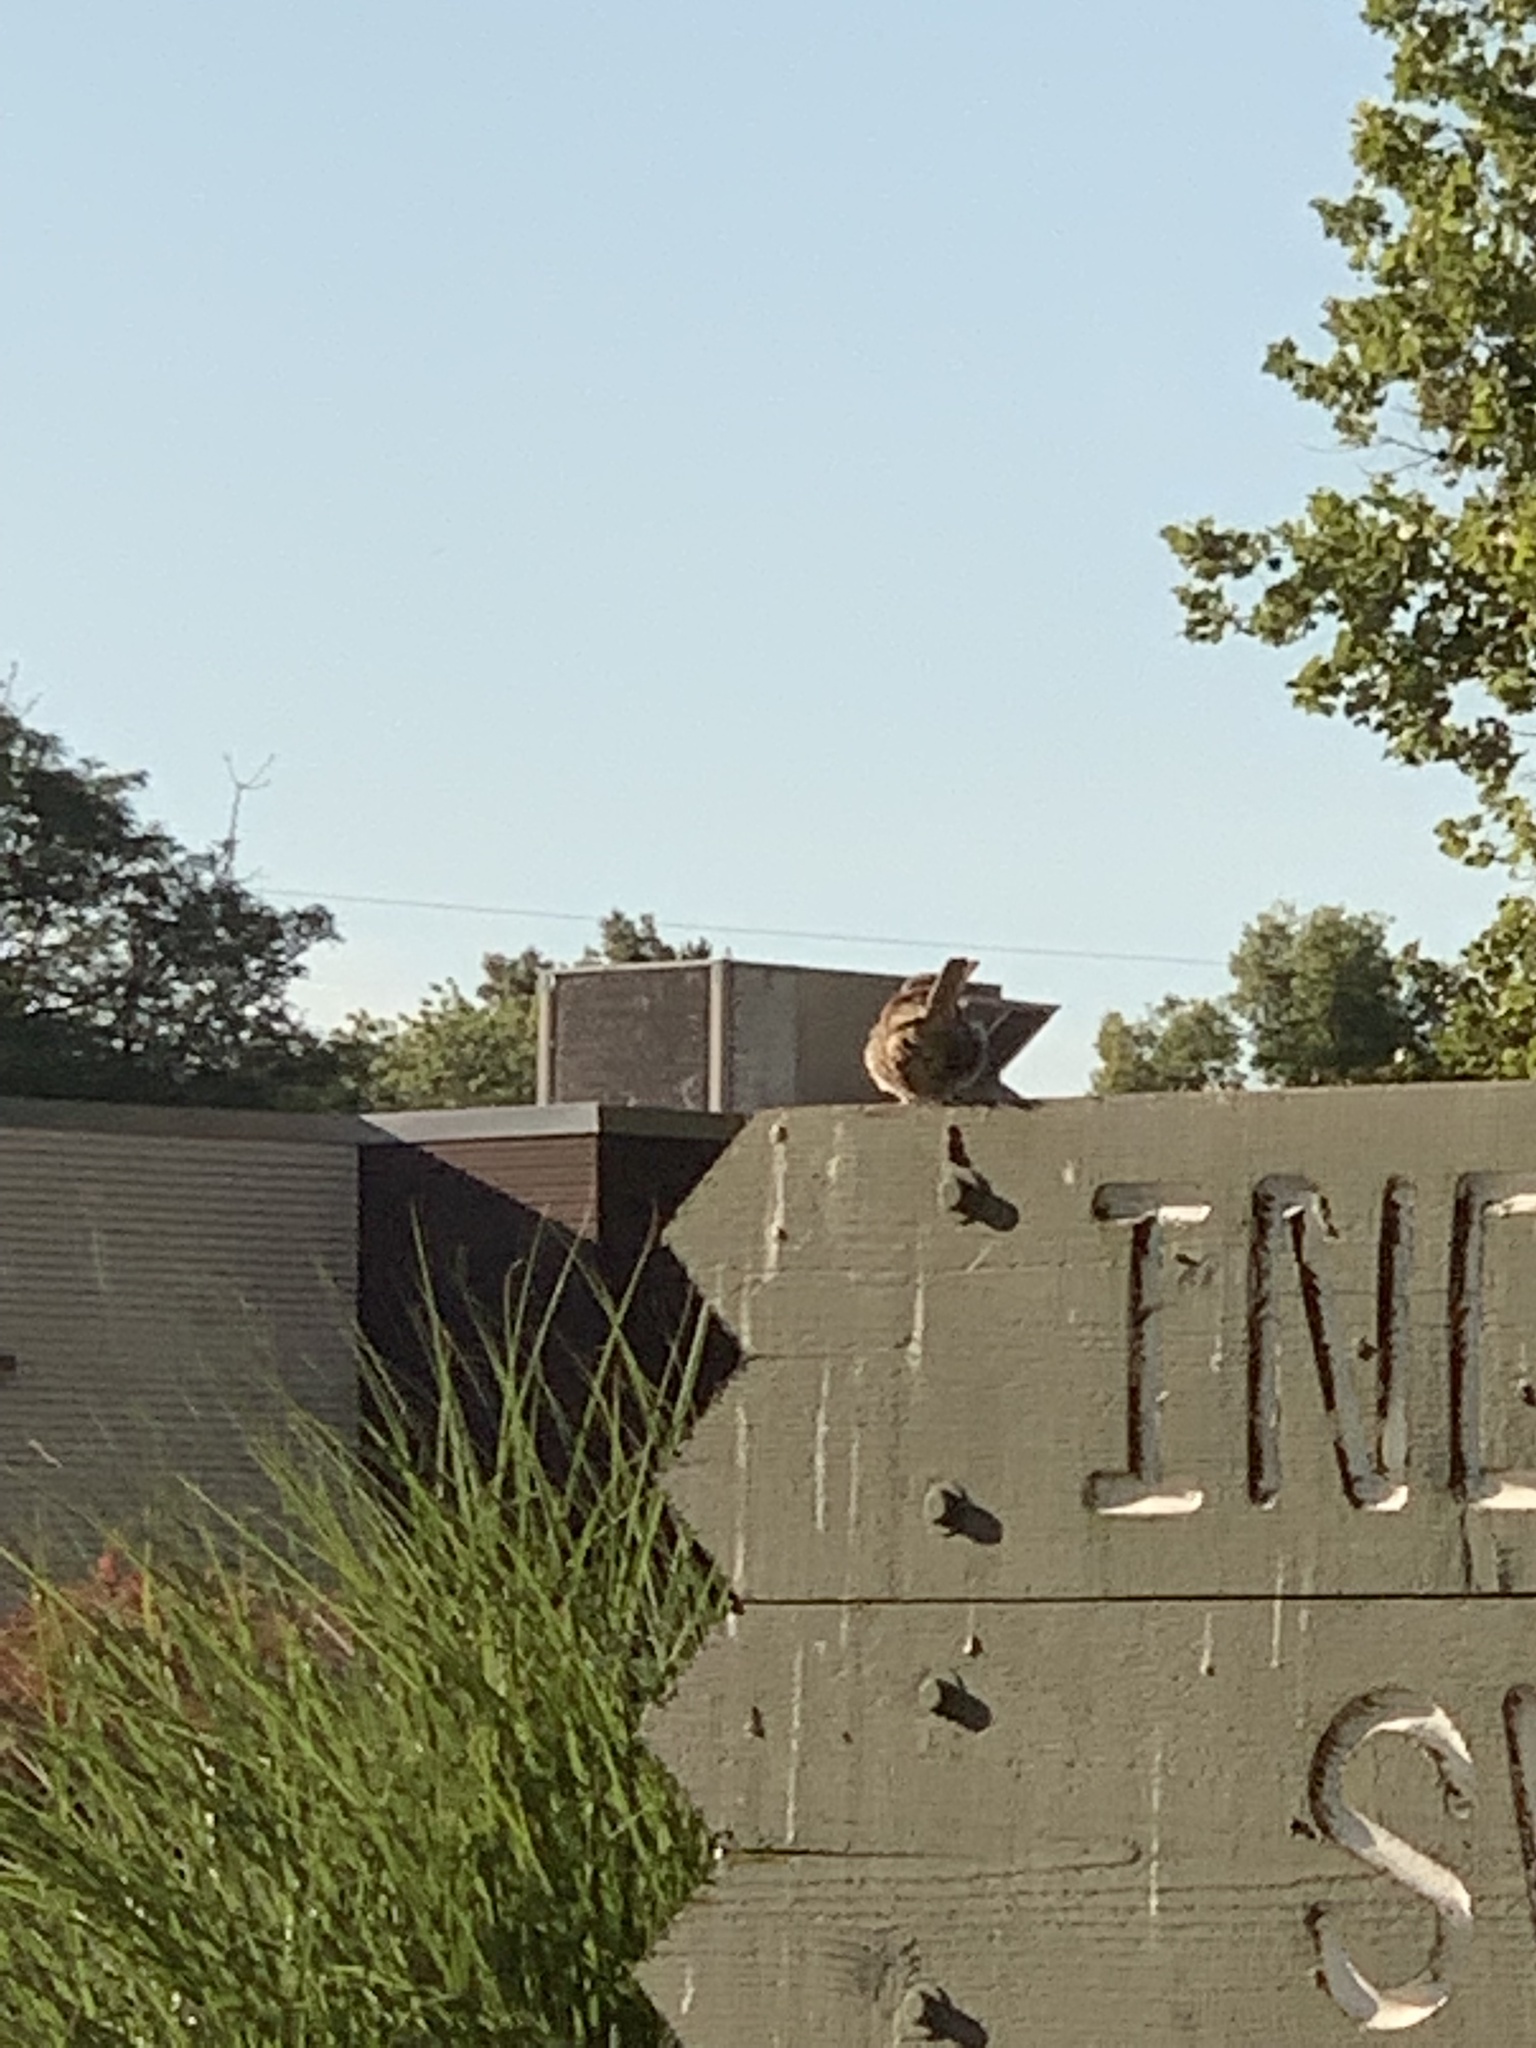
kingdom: Animalia
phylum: Chordata
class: Aves
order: Passeriformes
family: Passeridae
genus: Passer
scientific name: Passer domesticus
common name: House sparrow
